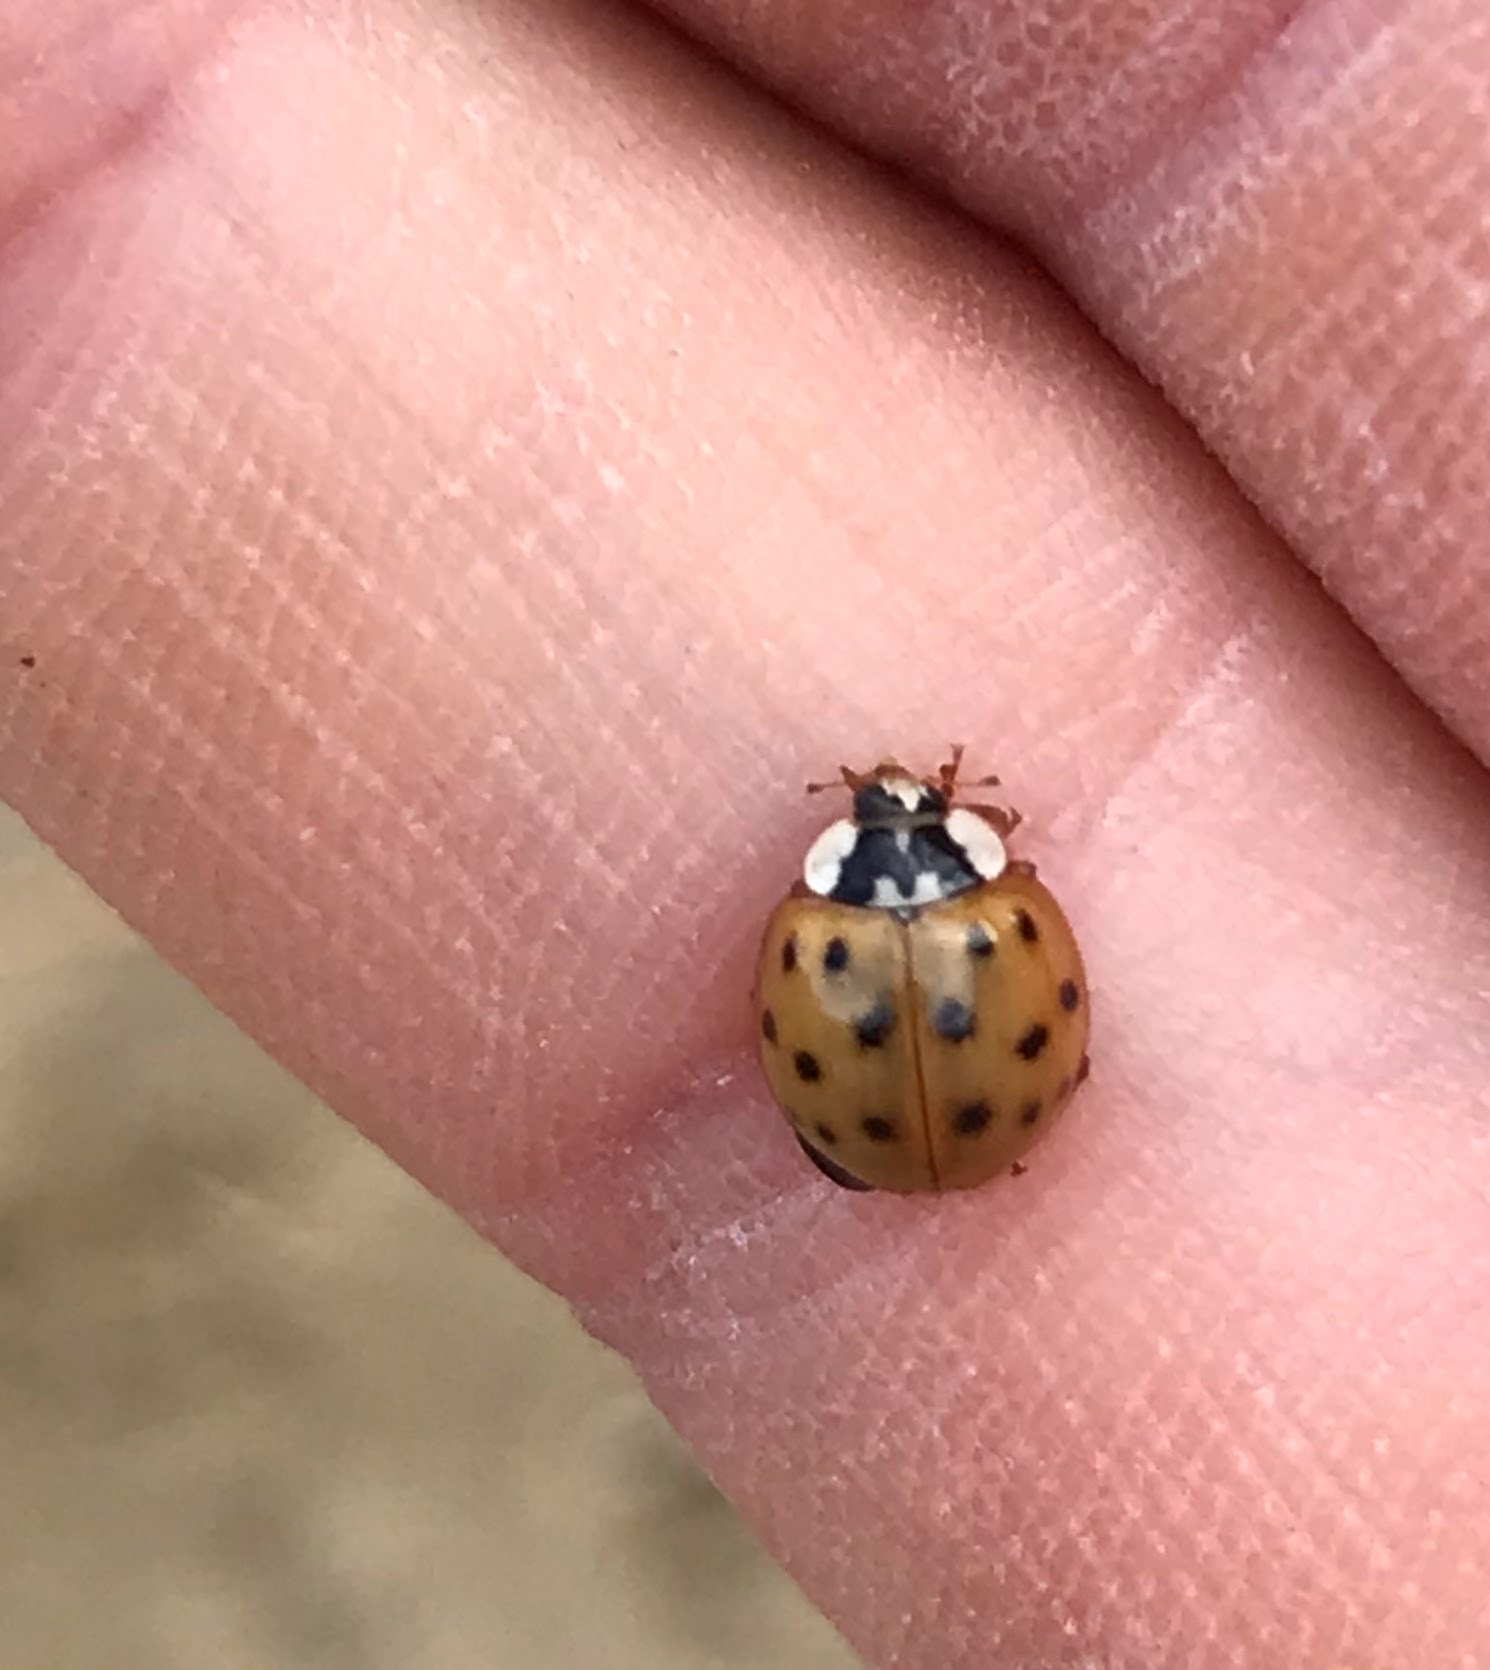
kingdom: Animalia
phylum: Arthropoda
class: Insecta
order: Coleoptera
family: Coccinellidae
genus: Harmonia
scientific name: Harmonia axyridis
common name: Harlequin ladybird
